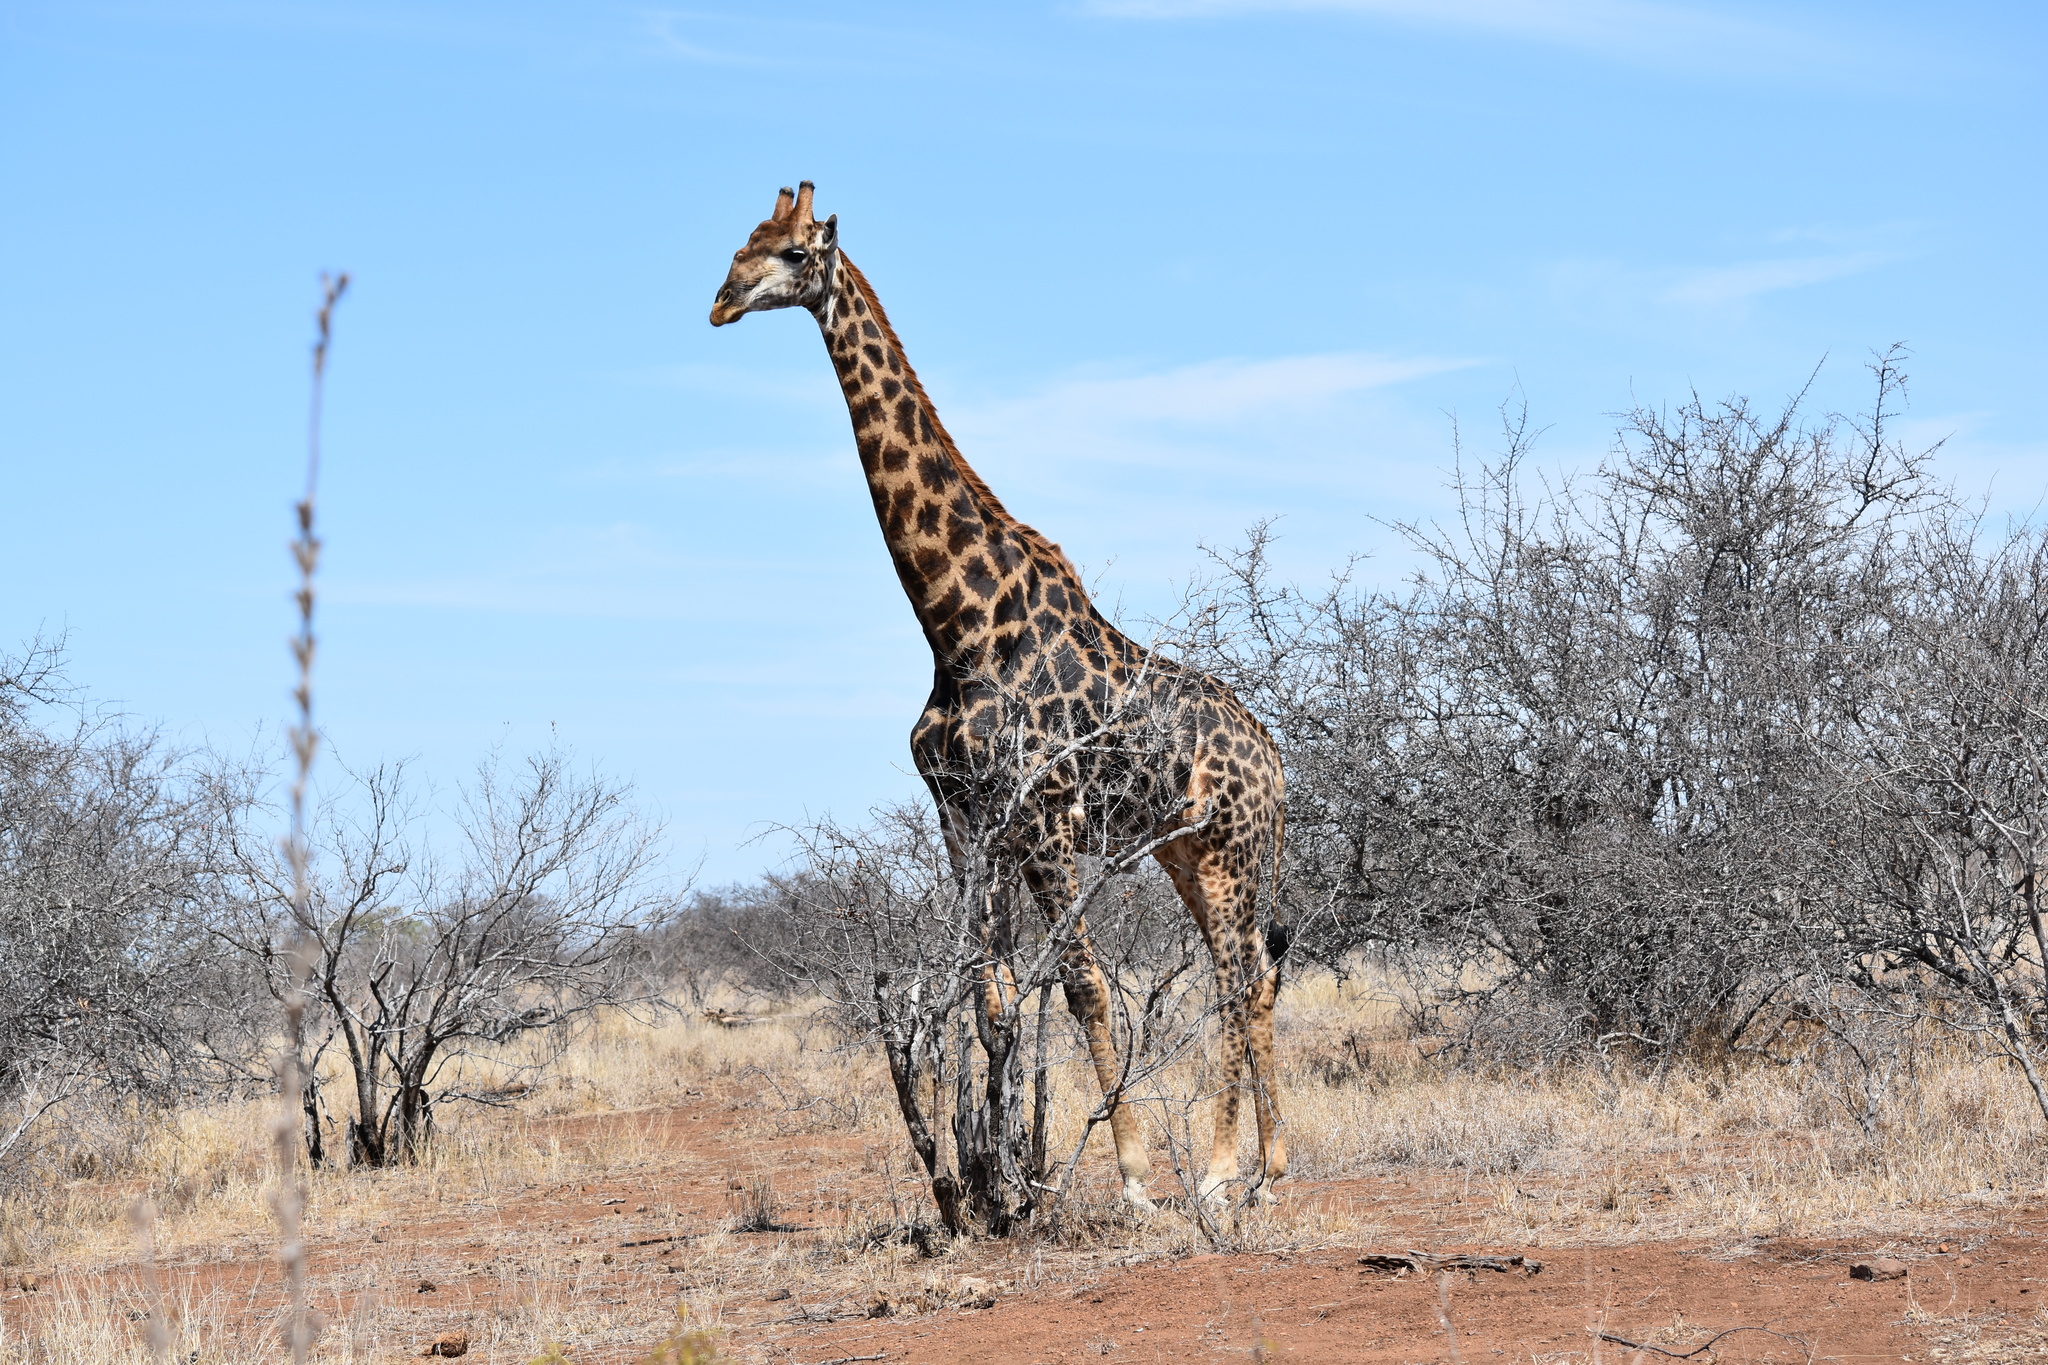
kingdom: Animalia
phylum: Chordata
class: Mammalia
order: Artiodactyla
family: Giraffidae
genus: Giraffa
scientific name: Giraffa giraffa
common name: Southern giraffe
